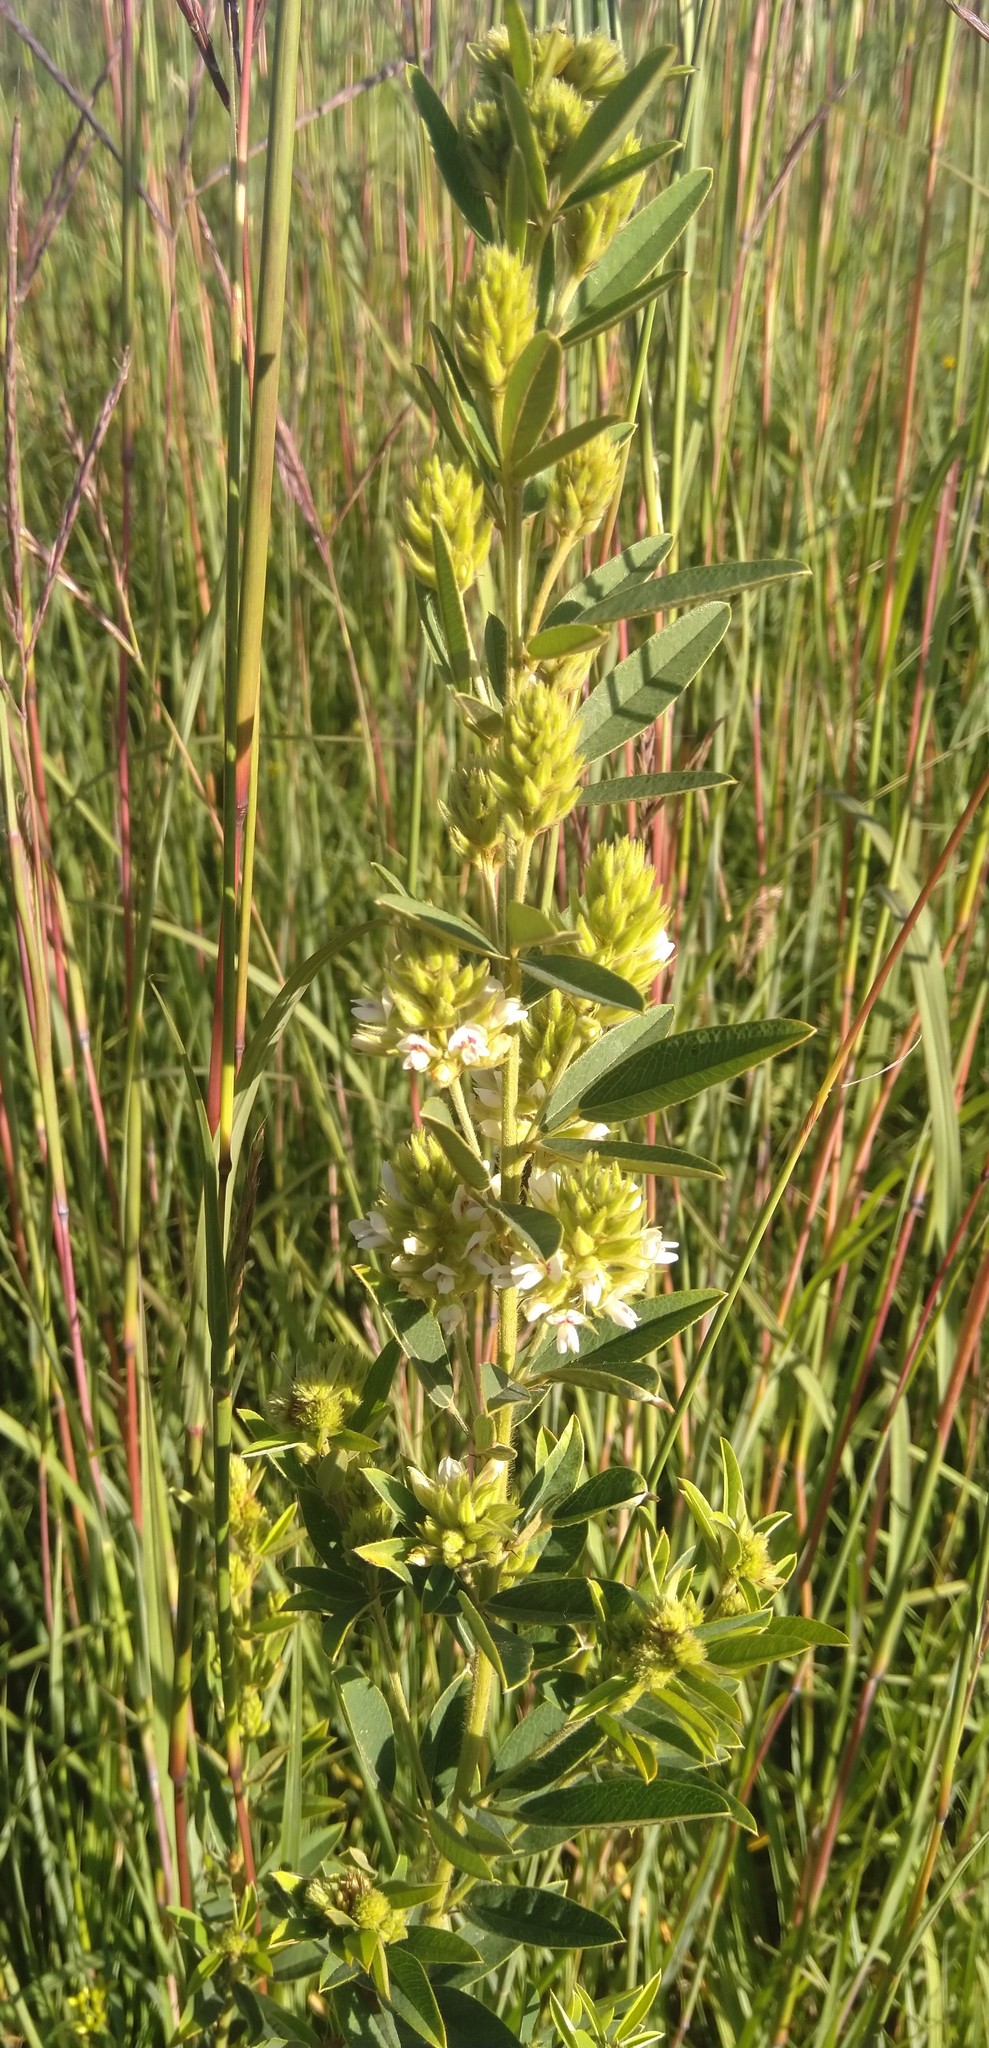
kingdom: Plantae
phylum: Tracheophyta
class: Magnoliopsida
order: Fabales
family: Fabaceae
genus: Lespedeza
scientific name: Lespedeza capitata
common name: Dusty clover
